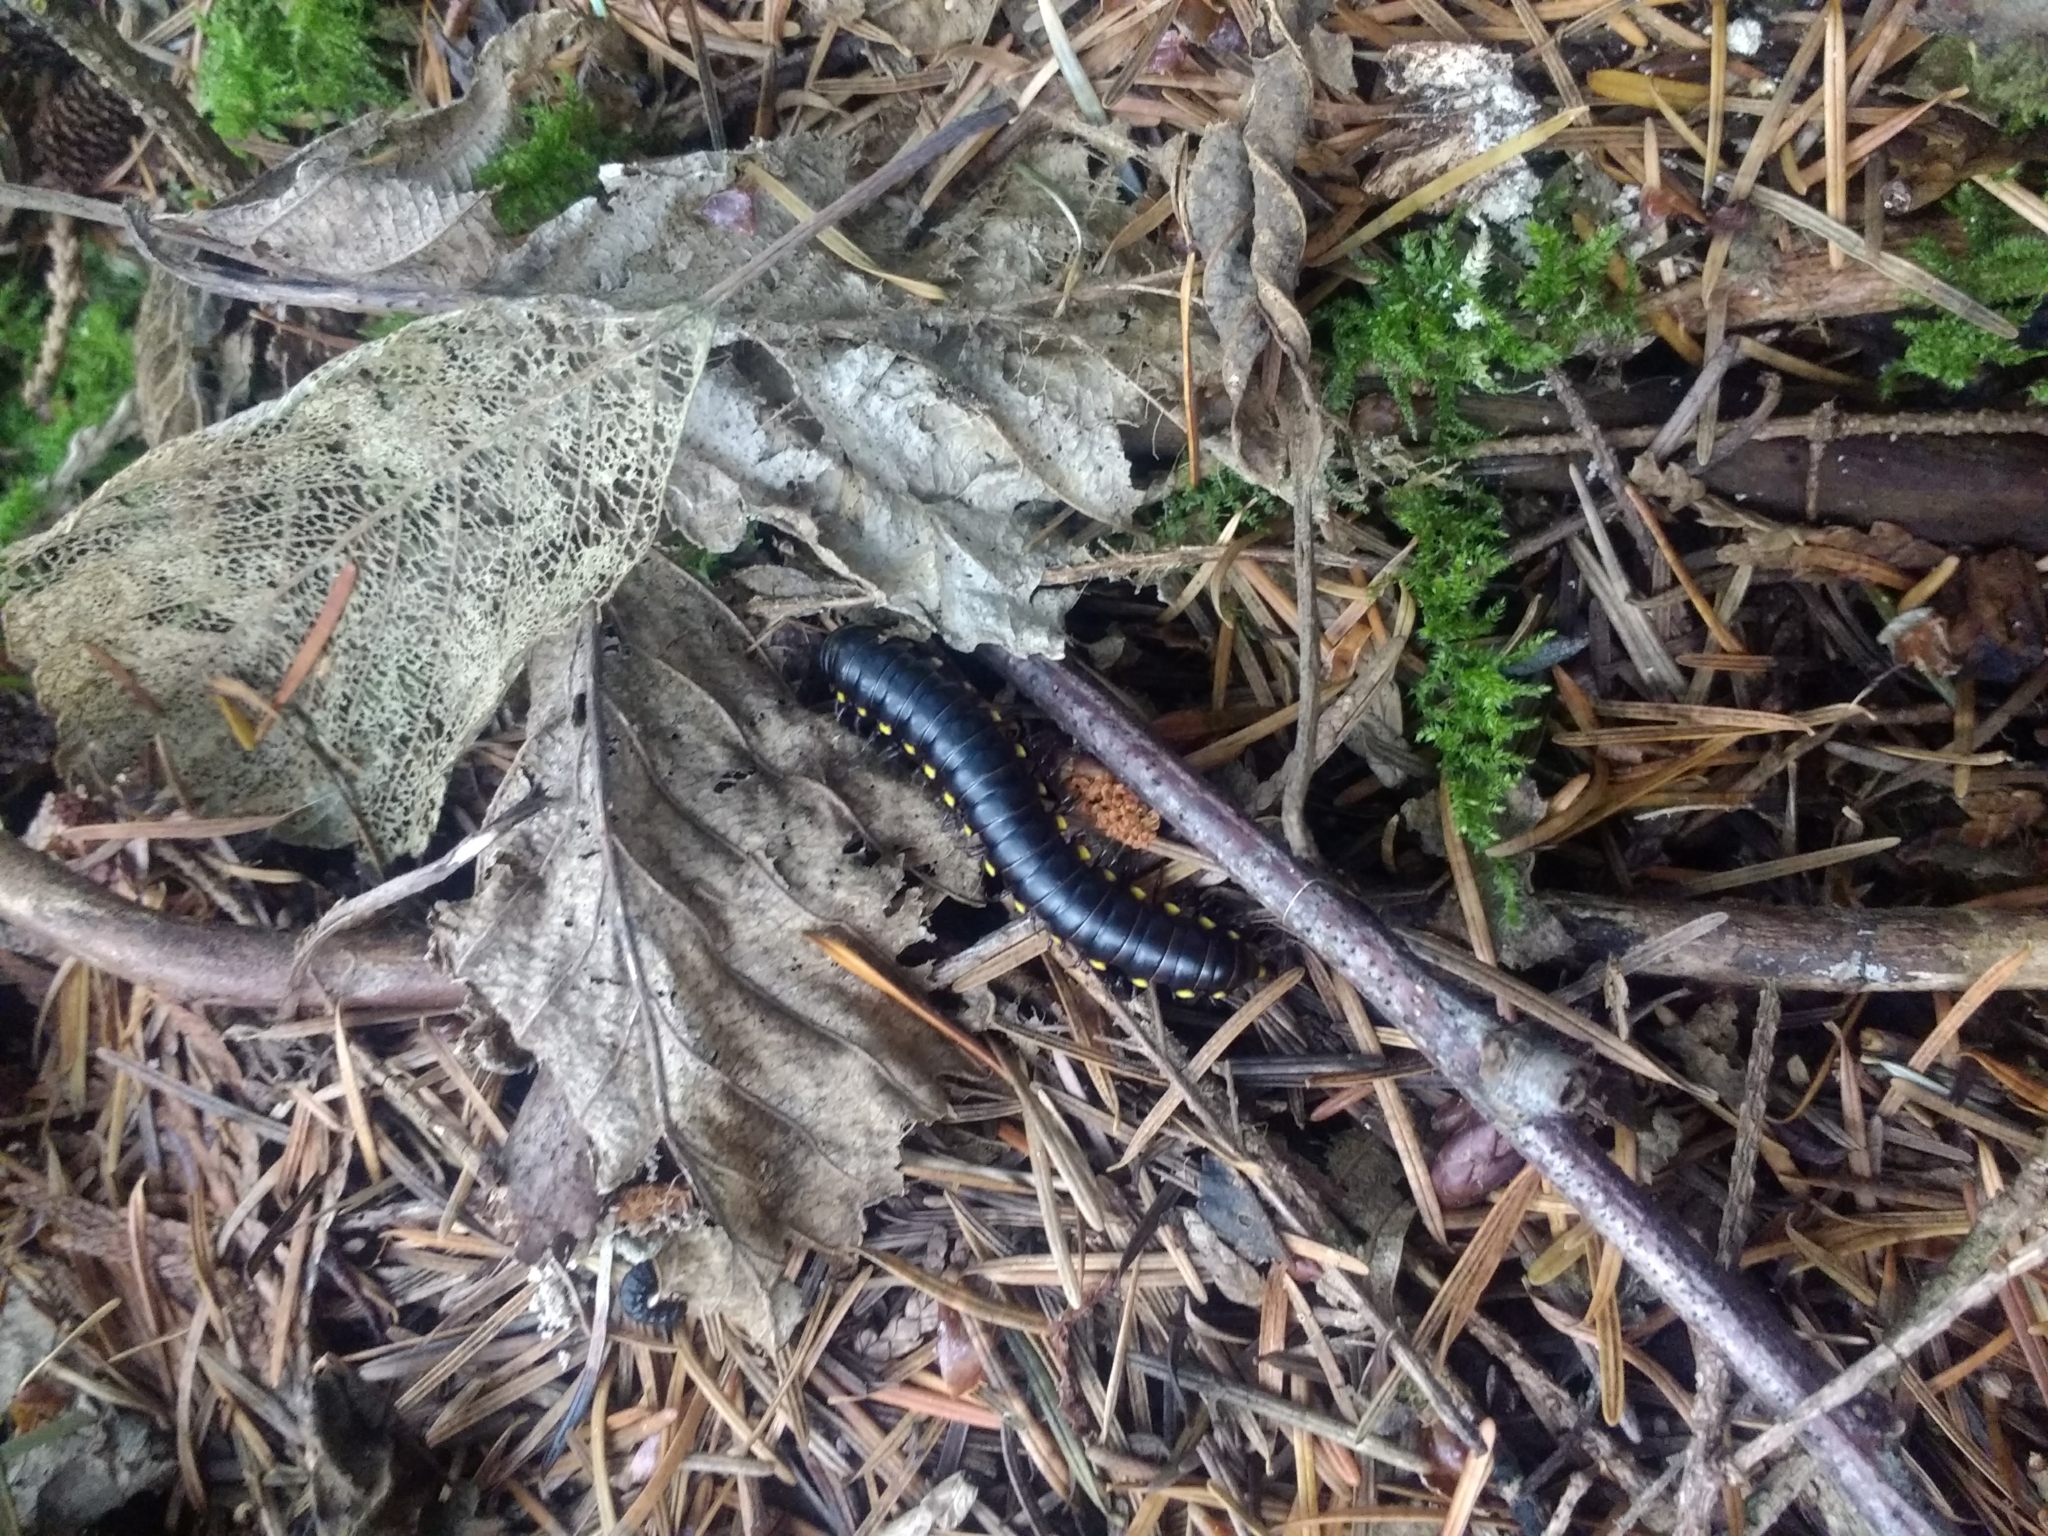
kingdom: Animalia
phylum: Arthropoda
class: Diplopoda
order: Polydesmida
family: Xystodesmidae
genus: Harpaphe
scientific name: Harpaphe haydeniana
